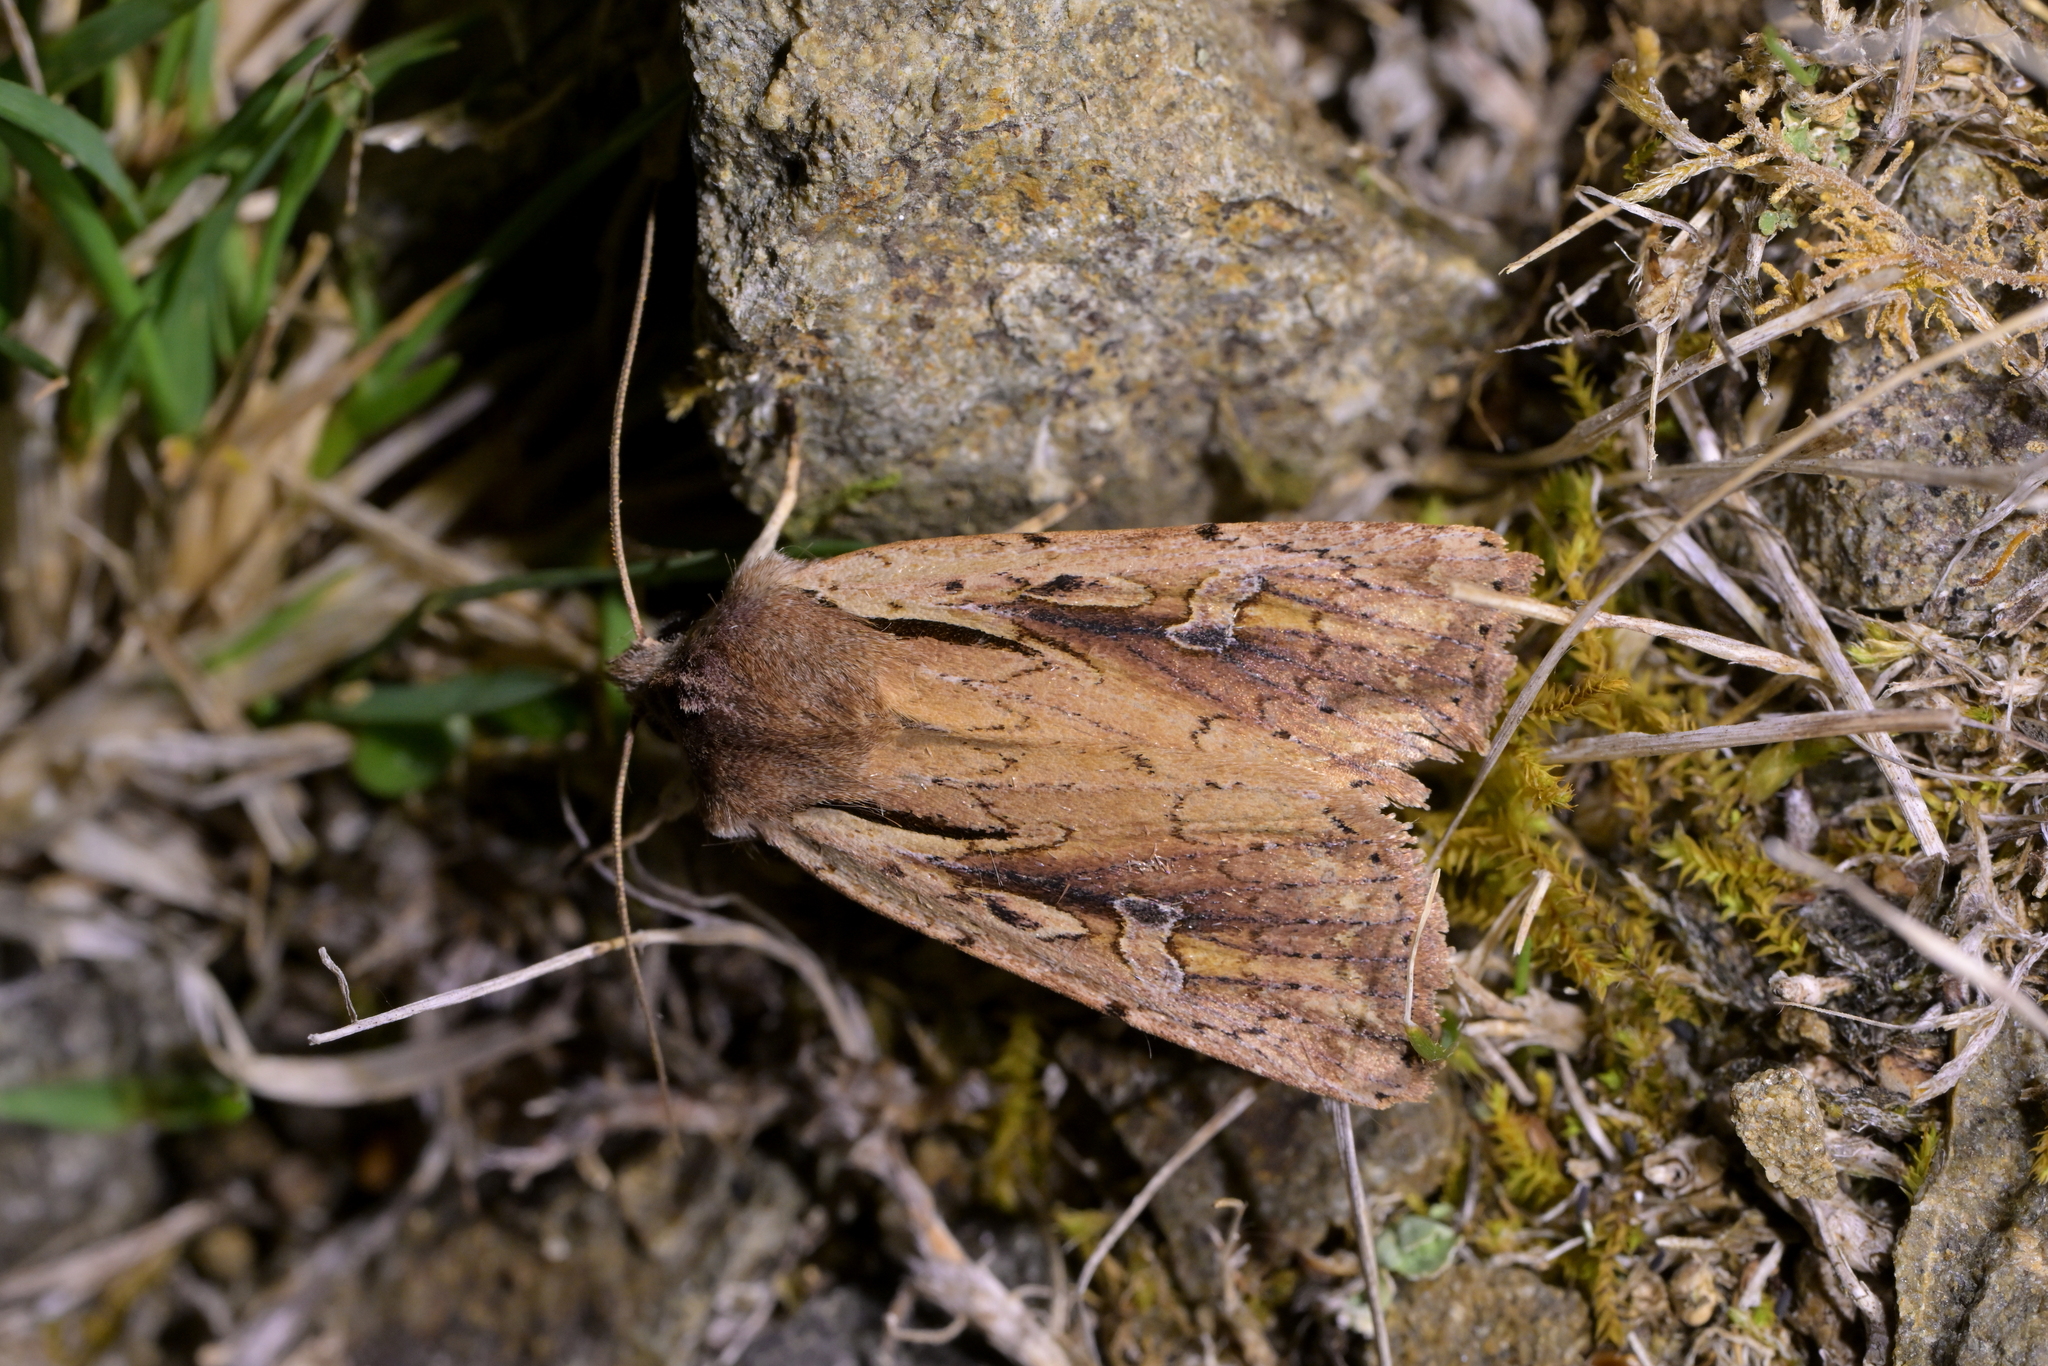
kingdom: Animalia
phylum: Arthropoda
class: Insecta
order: Lepidoptera
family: Noctuidae
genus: Ichneutica
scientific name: Ichneutica atristriga
